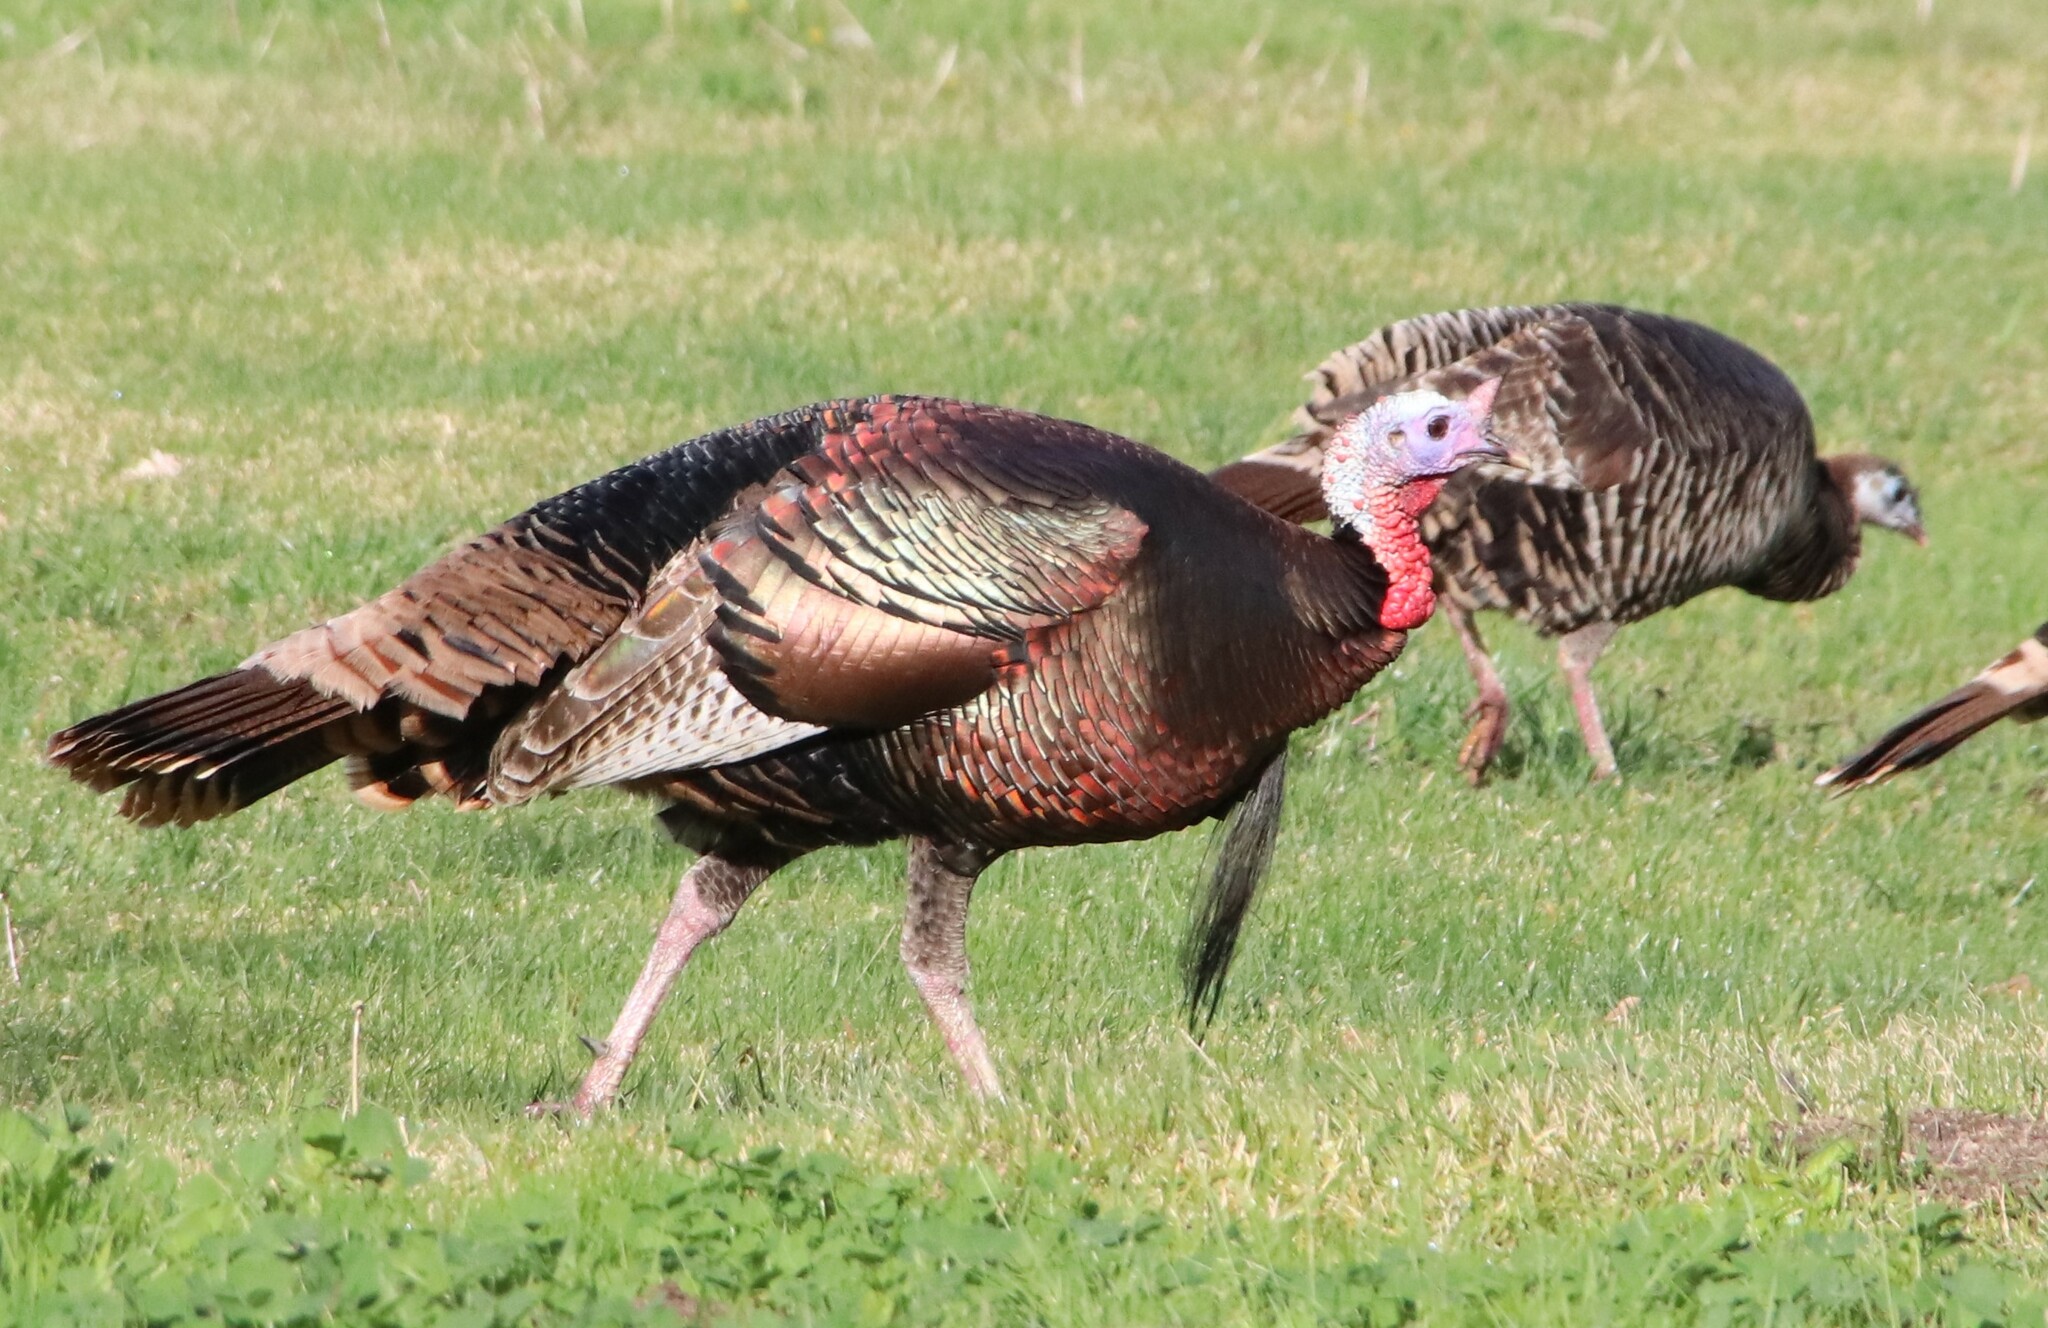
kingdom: Animalia
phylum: Chordata
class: Aves
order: Galliformes
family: Phasianidae
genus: Meleagris
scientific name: Meleagris gallopavo
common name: Wild turkey
